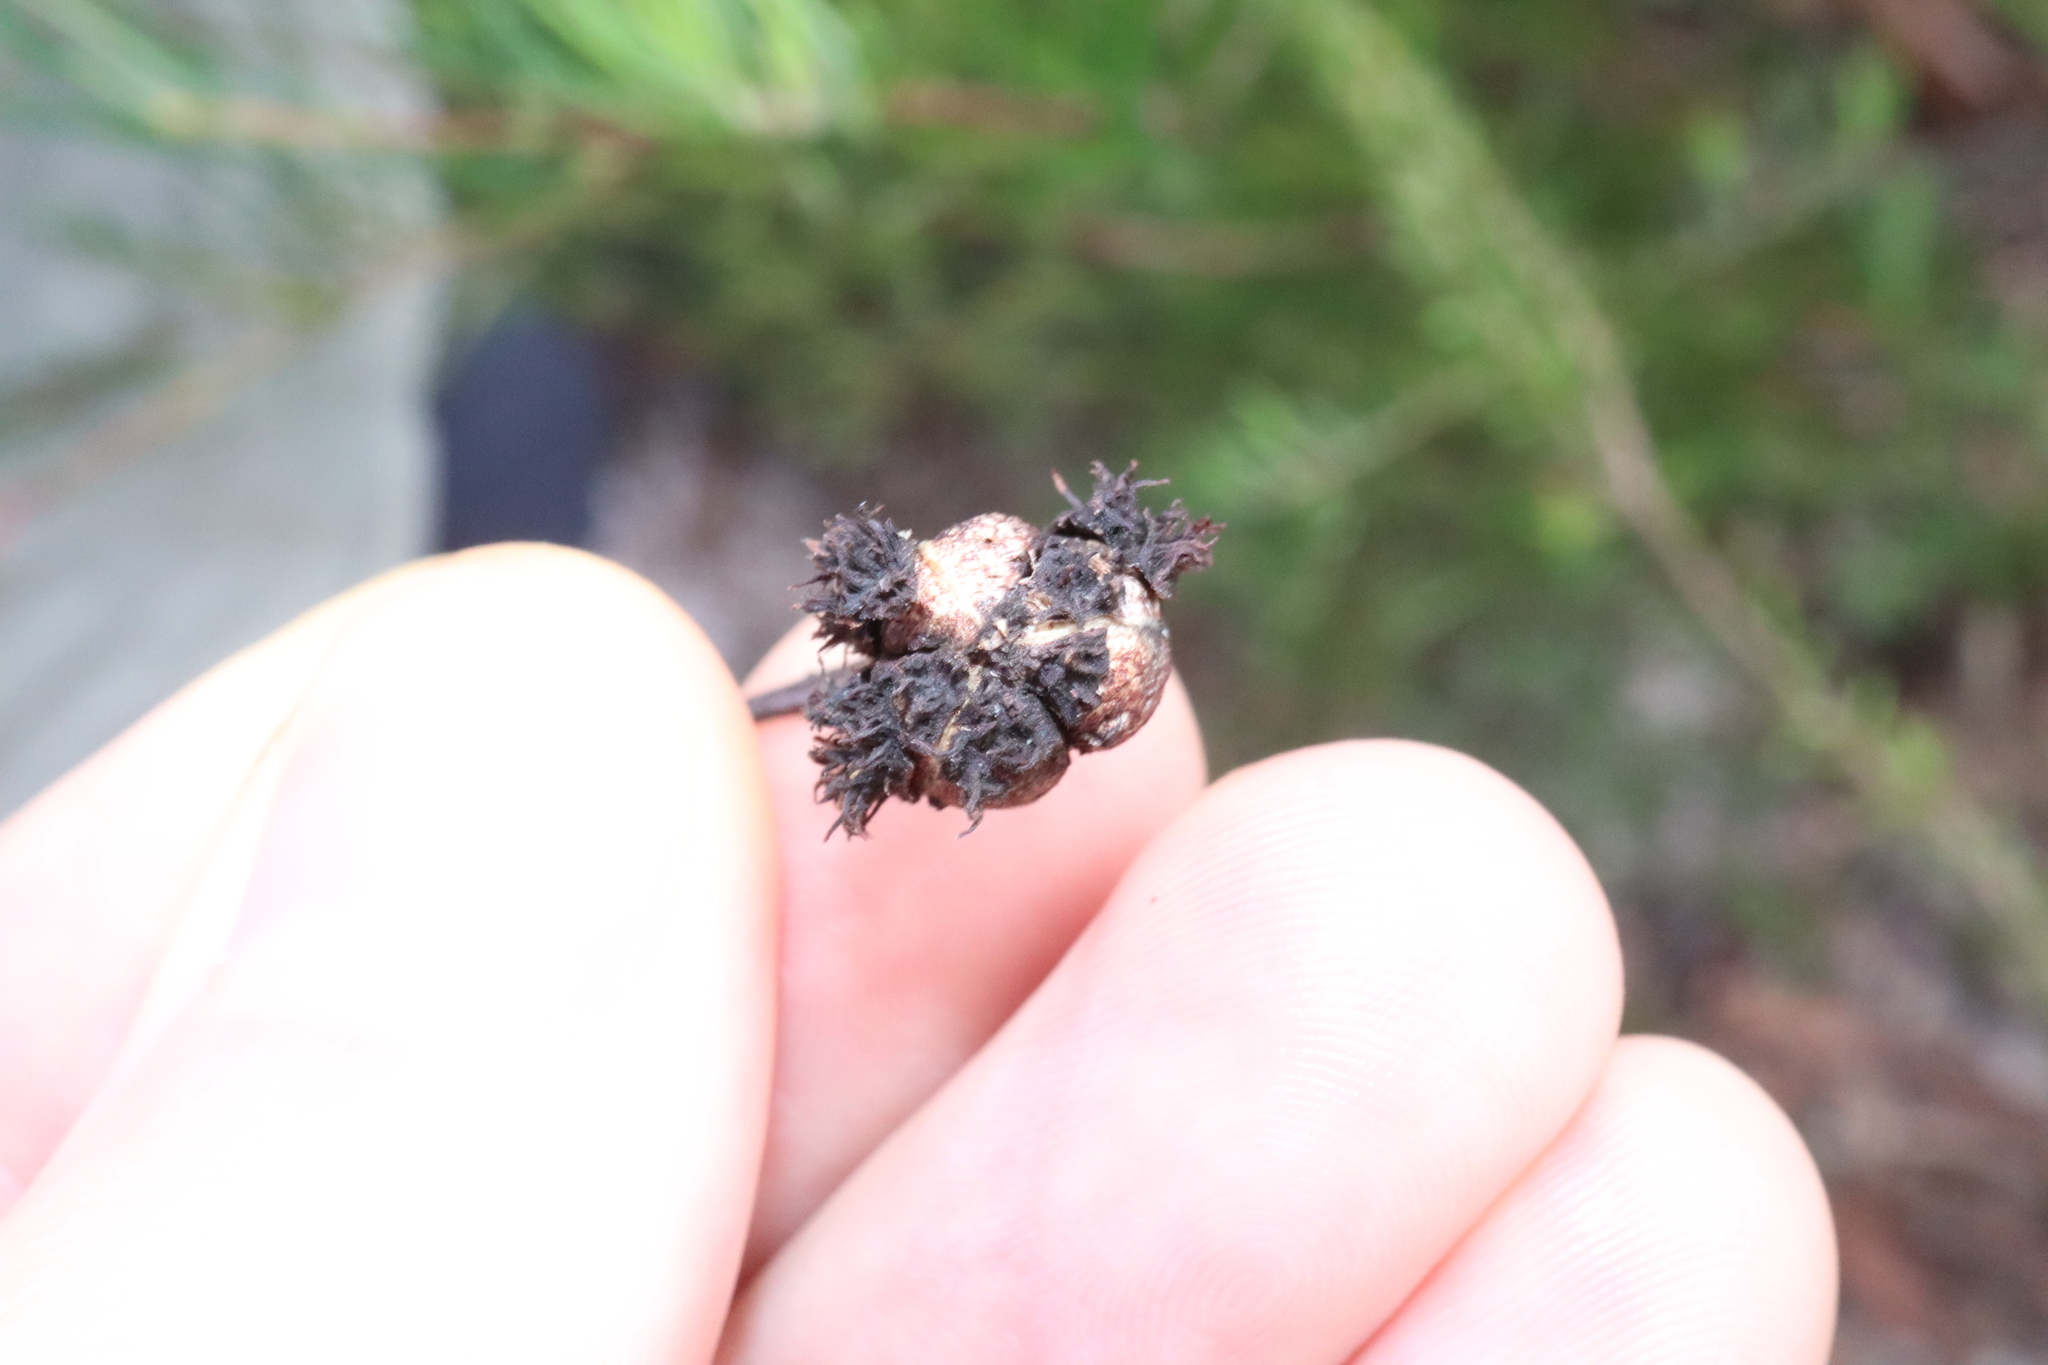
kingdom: Plantae
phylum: Tracheophyta
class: Magnoliopsida
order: Malpighiales
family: Euphorbiaceae
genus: Ricinocarpos
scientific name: Ricinocarpos pinifolius
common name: Weddingbush
